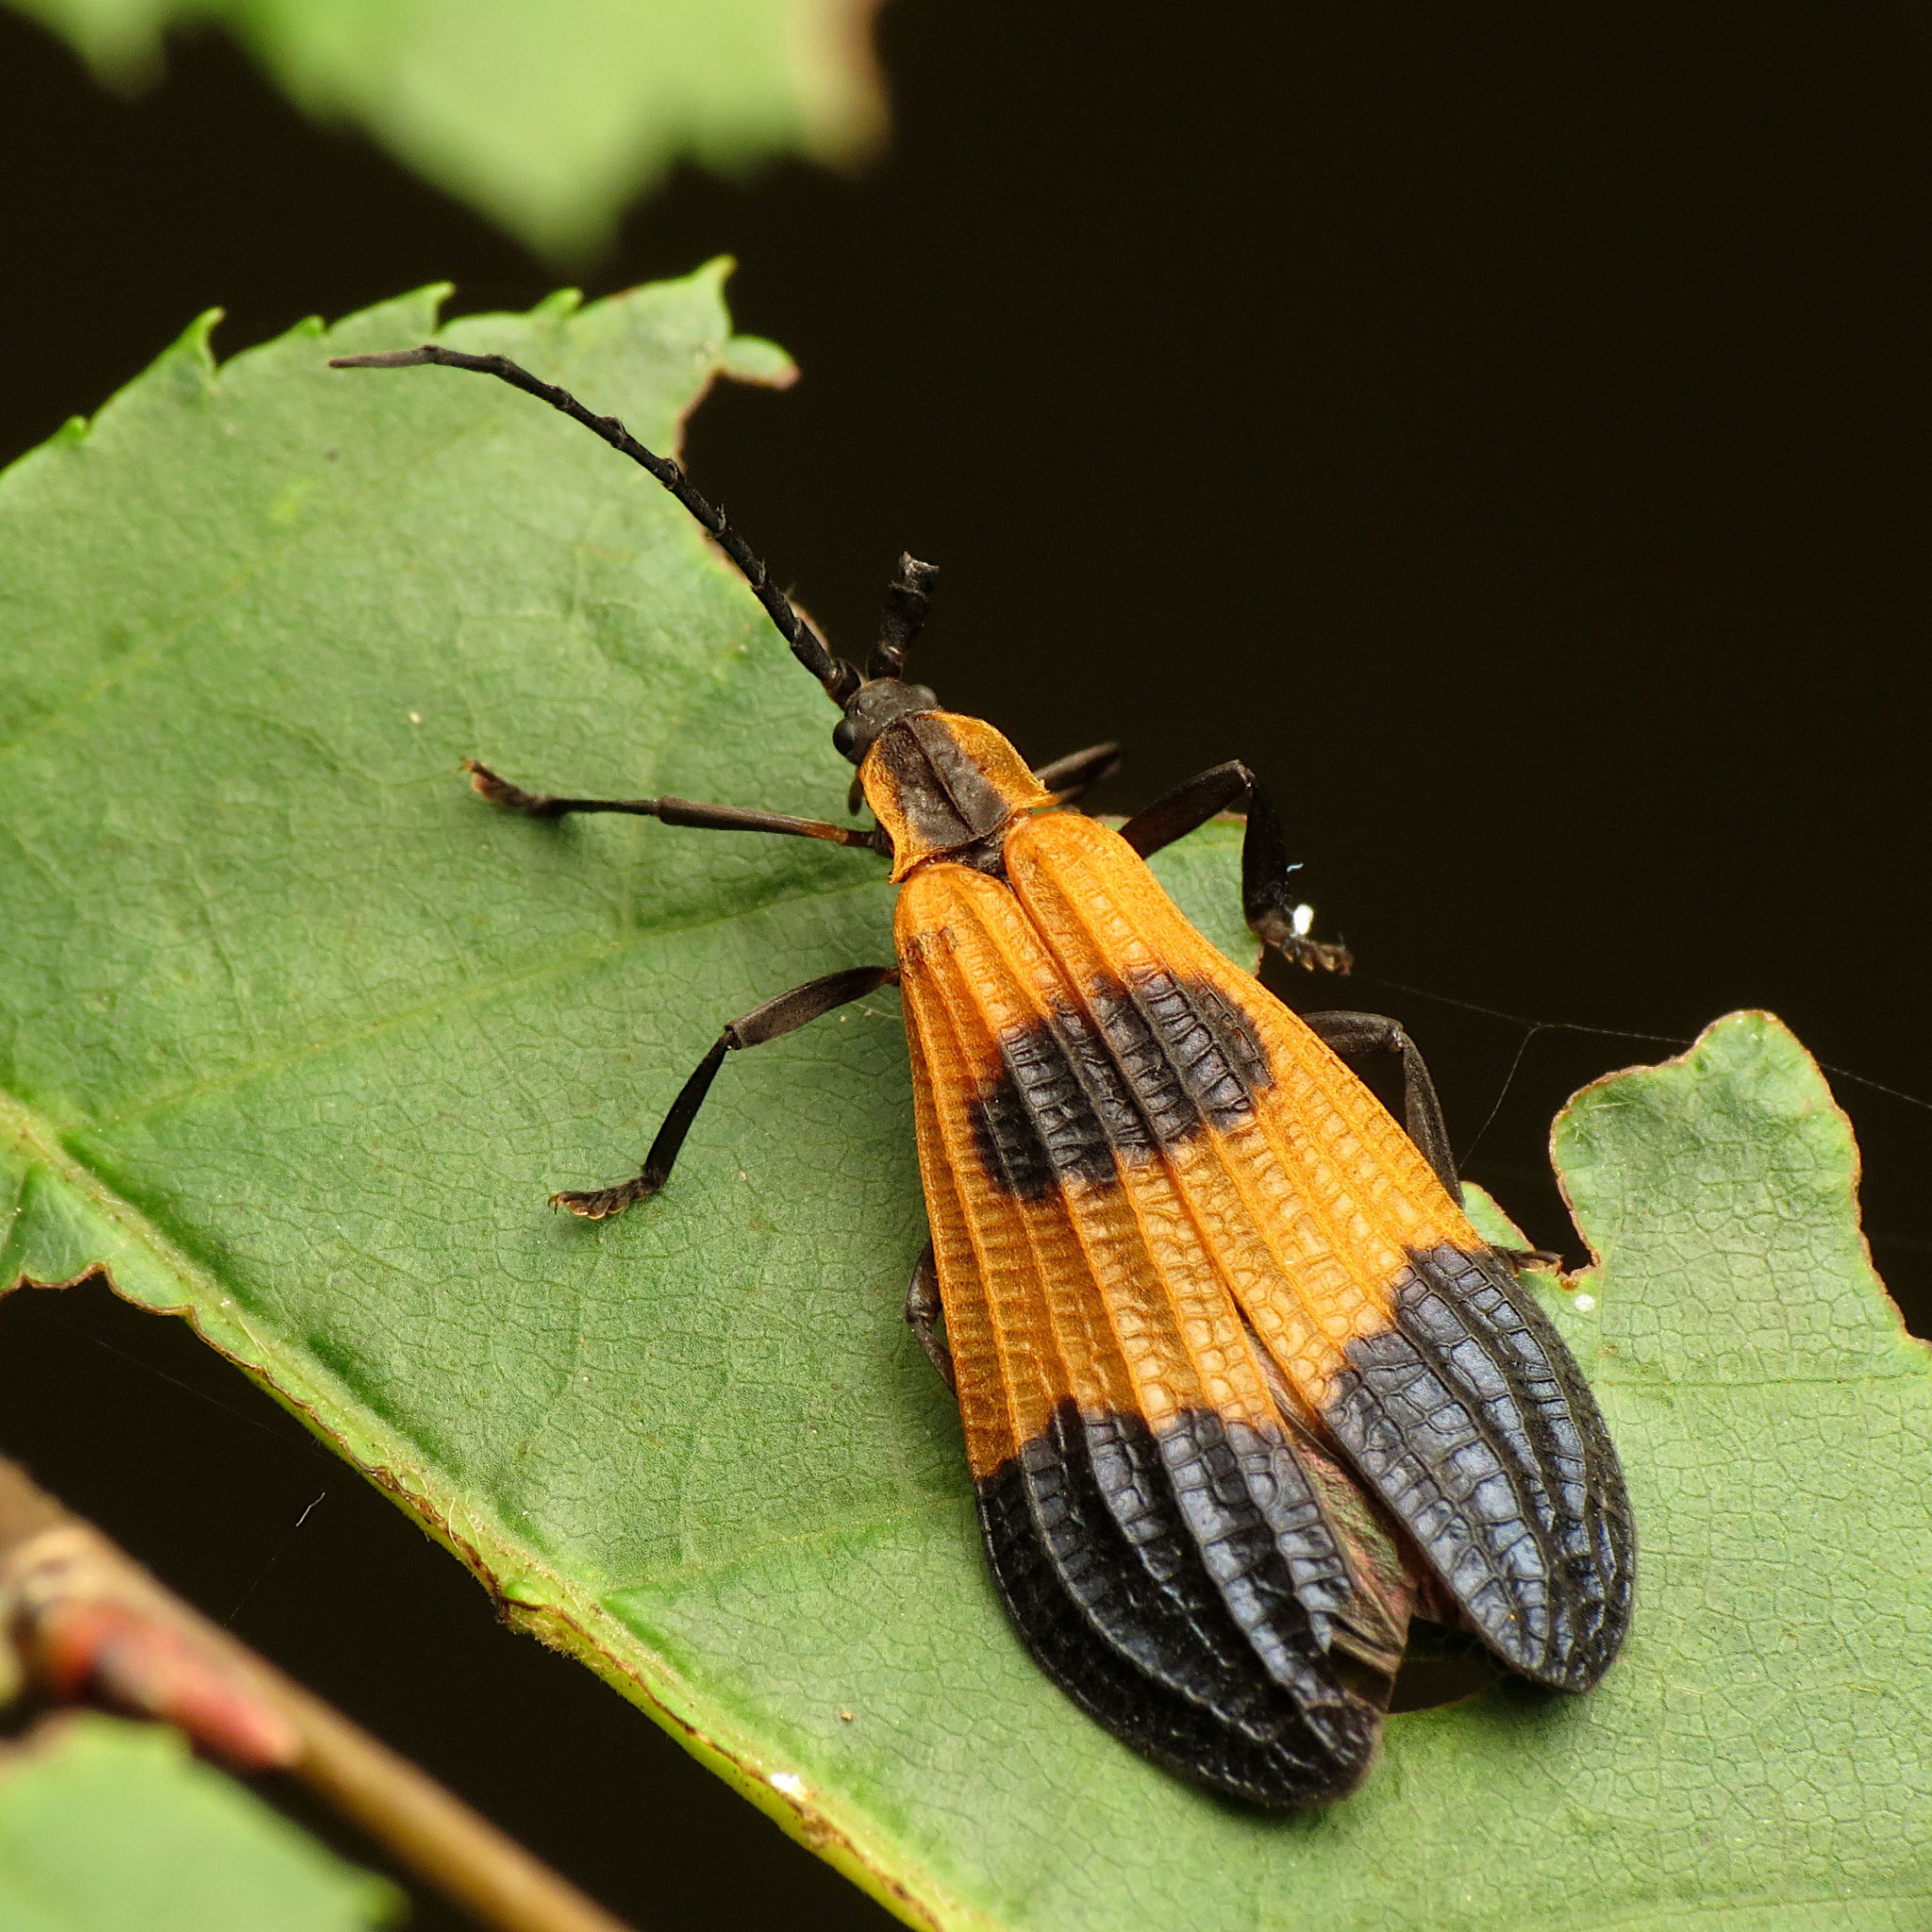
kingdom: Animalia
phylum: Arthropoda
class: Insecta
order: Coleoptera
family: Lycidae
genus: Calopteron
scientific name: Calopteron terminale
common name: End band net-winged beetle
